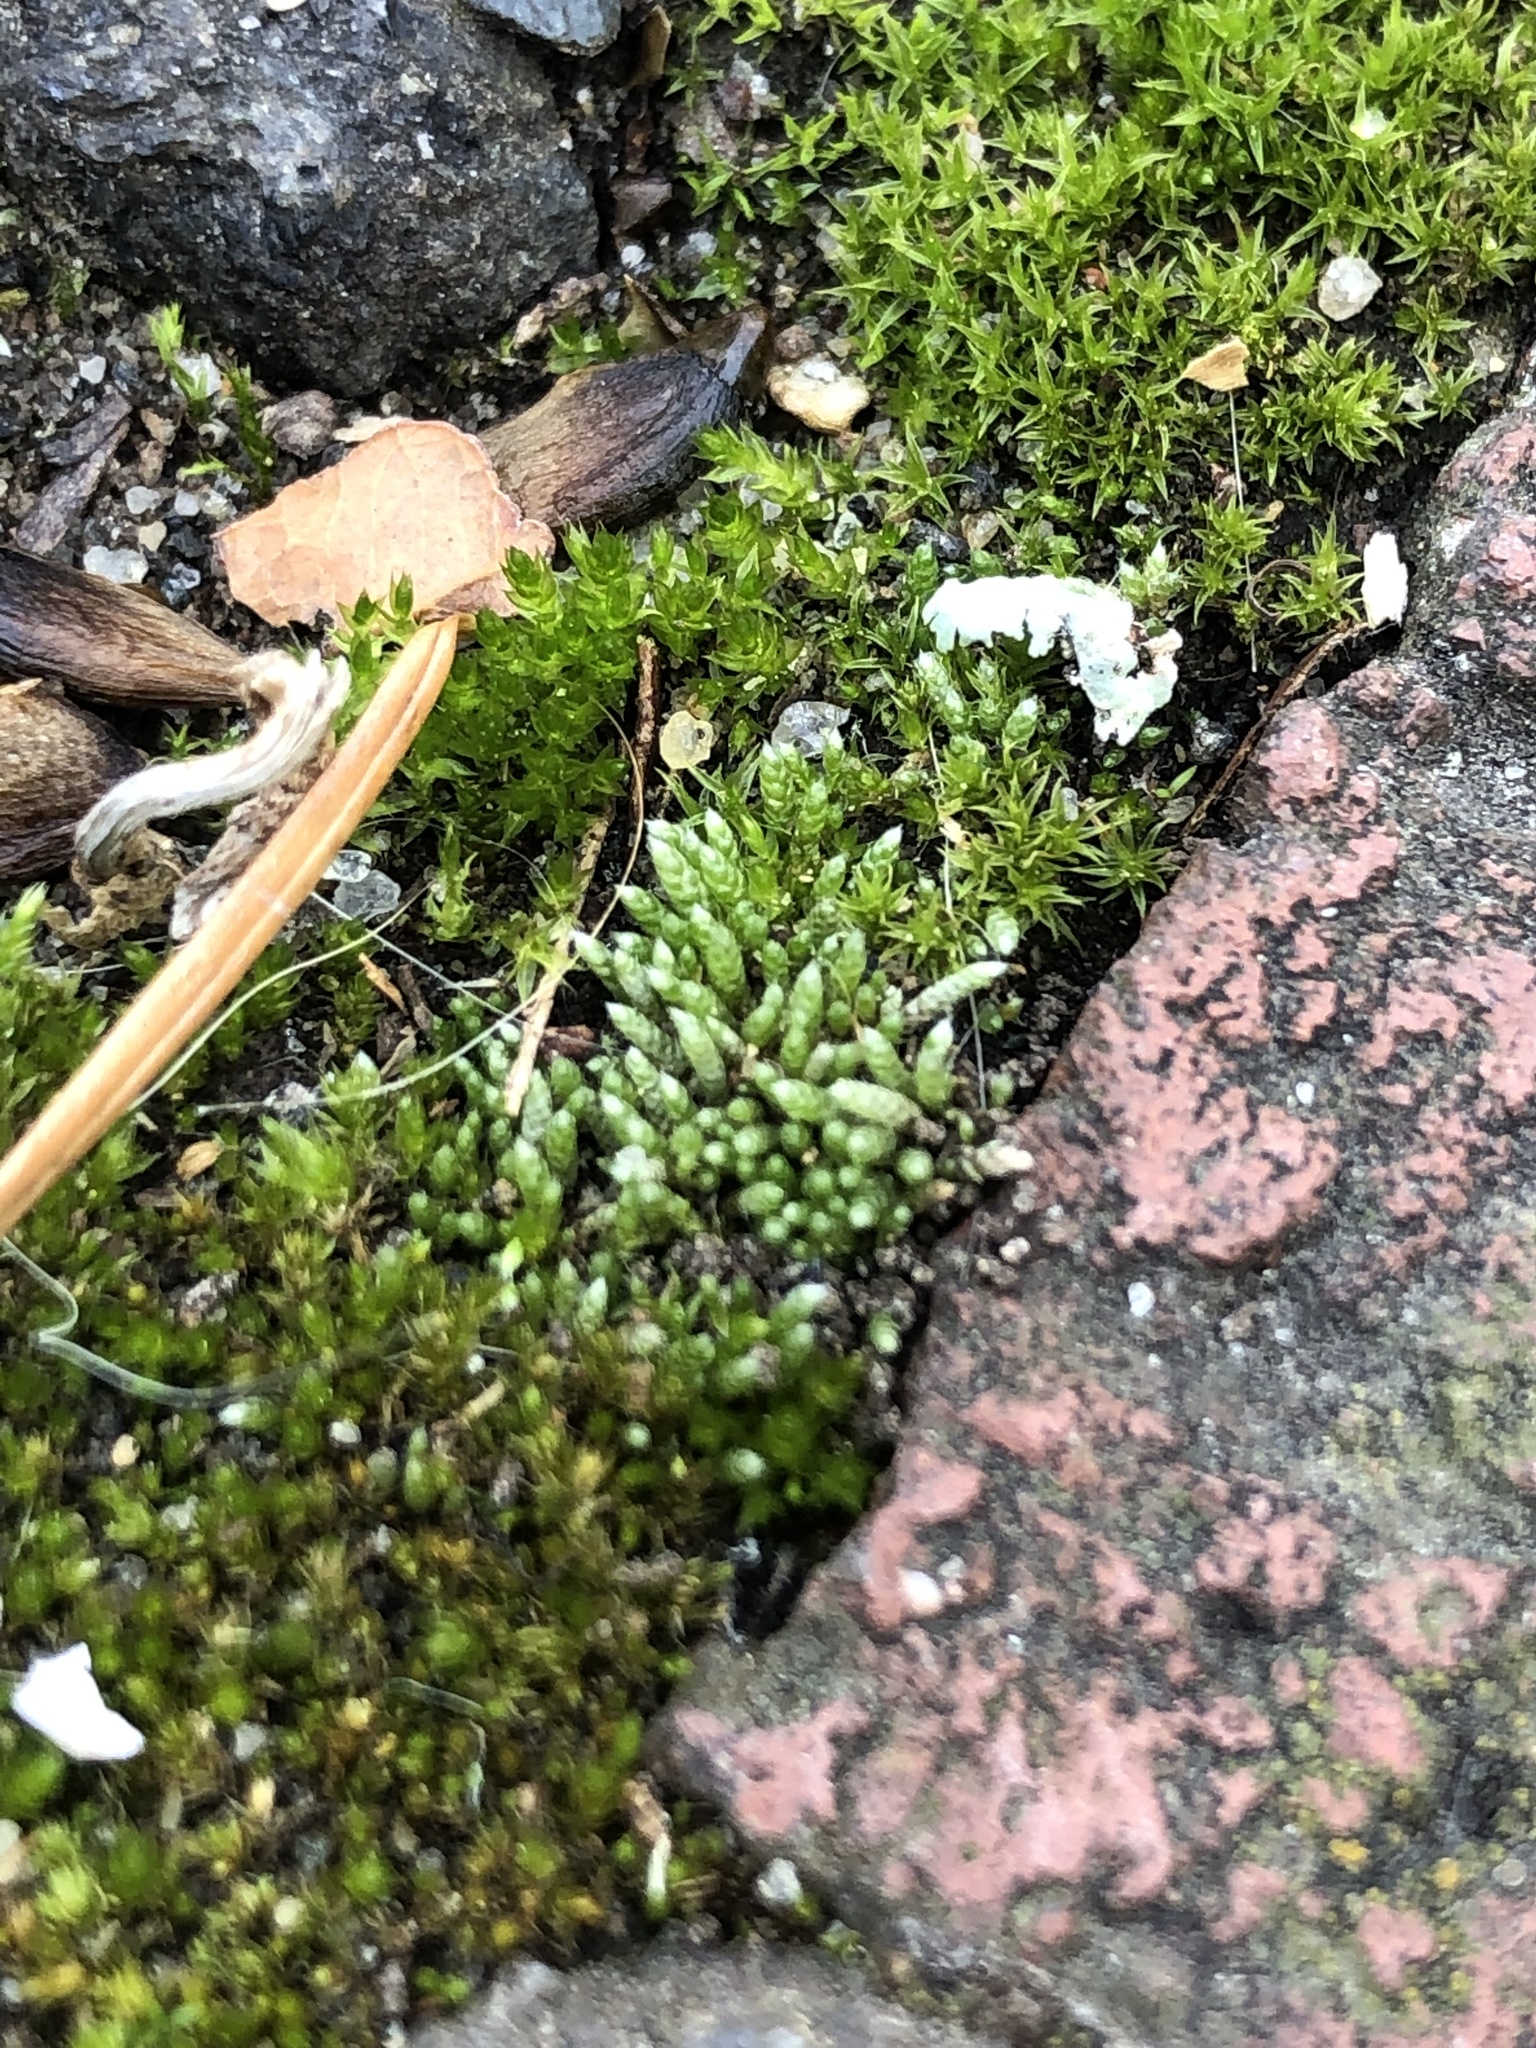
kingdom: Plantae
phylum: Bryophyta
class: Bryopsida
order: Bryales
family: Bryaceae
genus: Bryum
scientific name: Bryum argenteum
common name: Silver-moss
